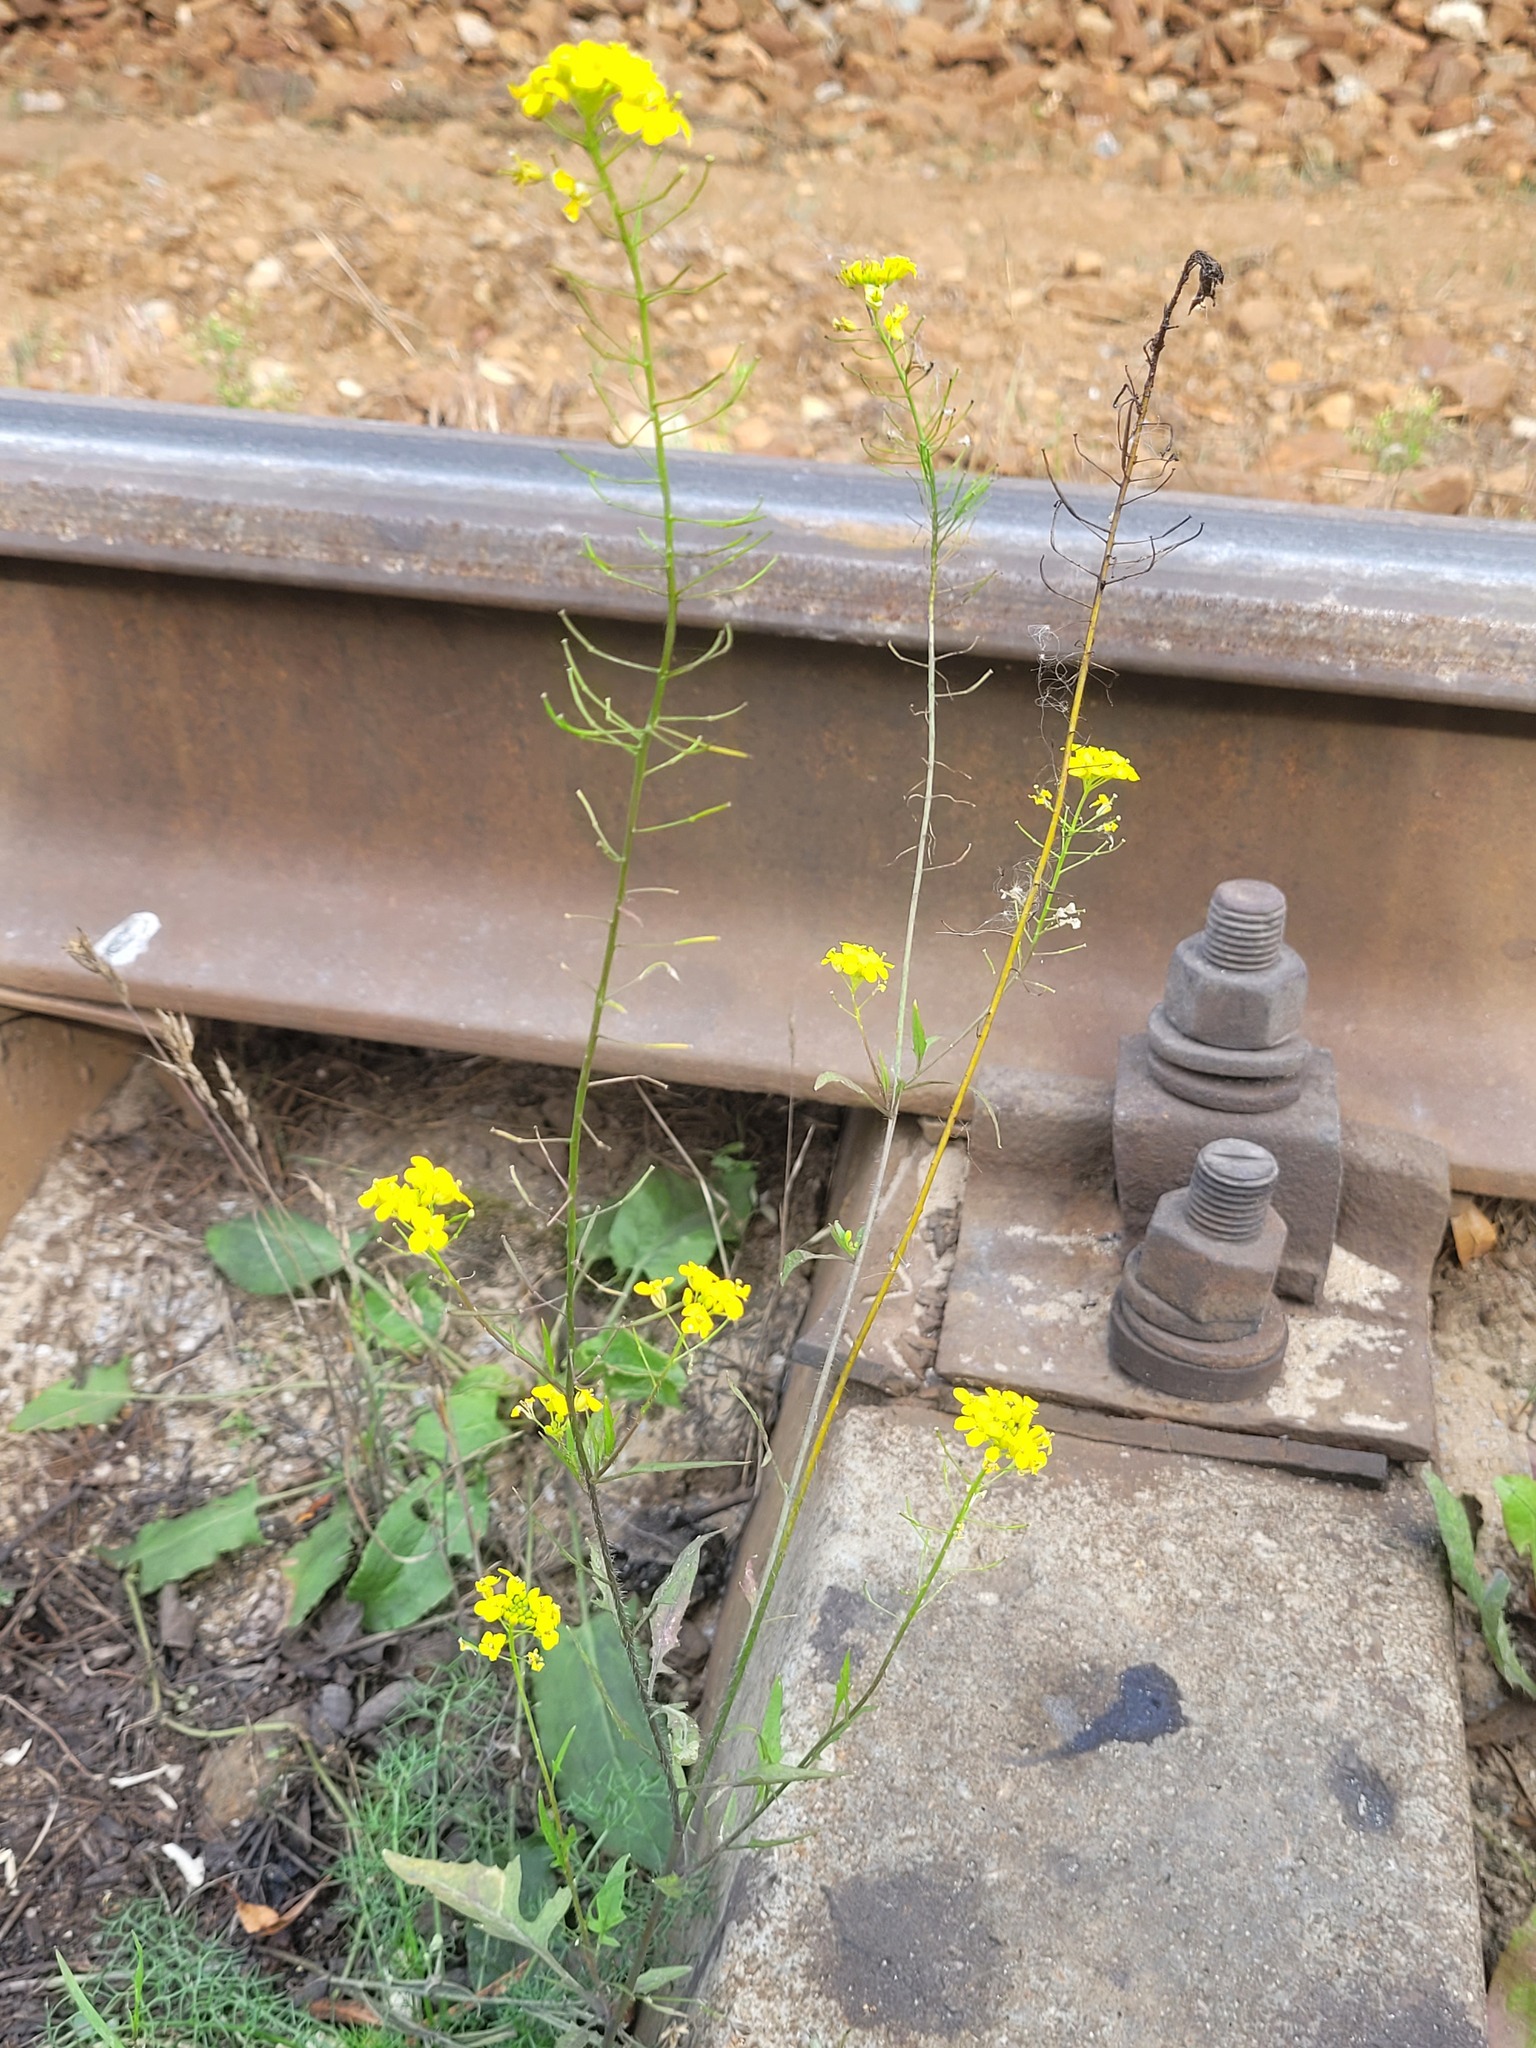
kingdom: Plantae
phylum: Tracheophyta
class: Magnoliopsida
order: Brassicales
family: Brassicaceae
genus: Sisymbrium
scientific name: Sisymbrium loeselii
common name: False london-rocket
